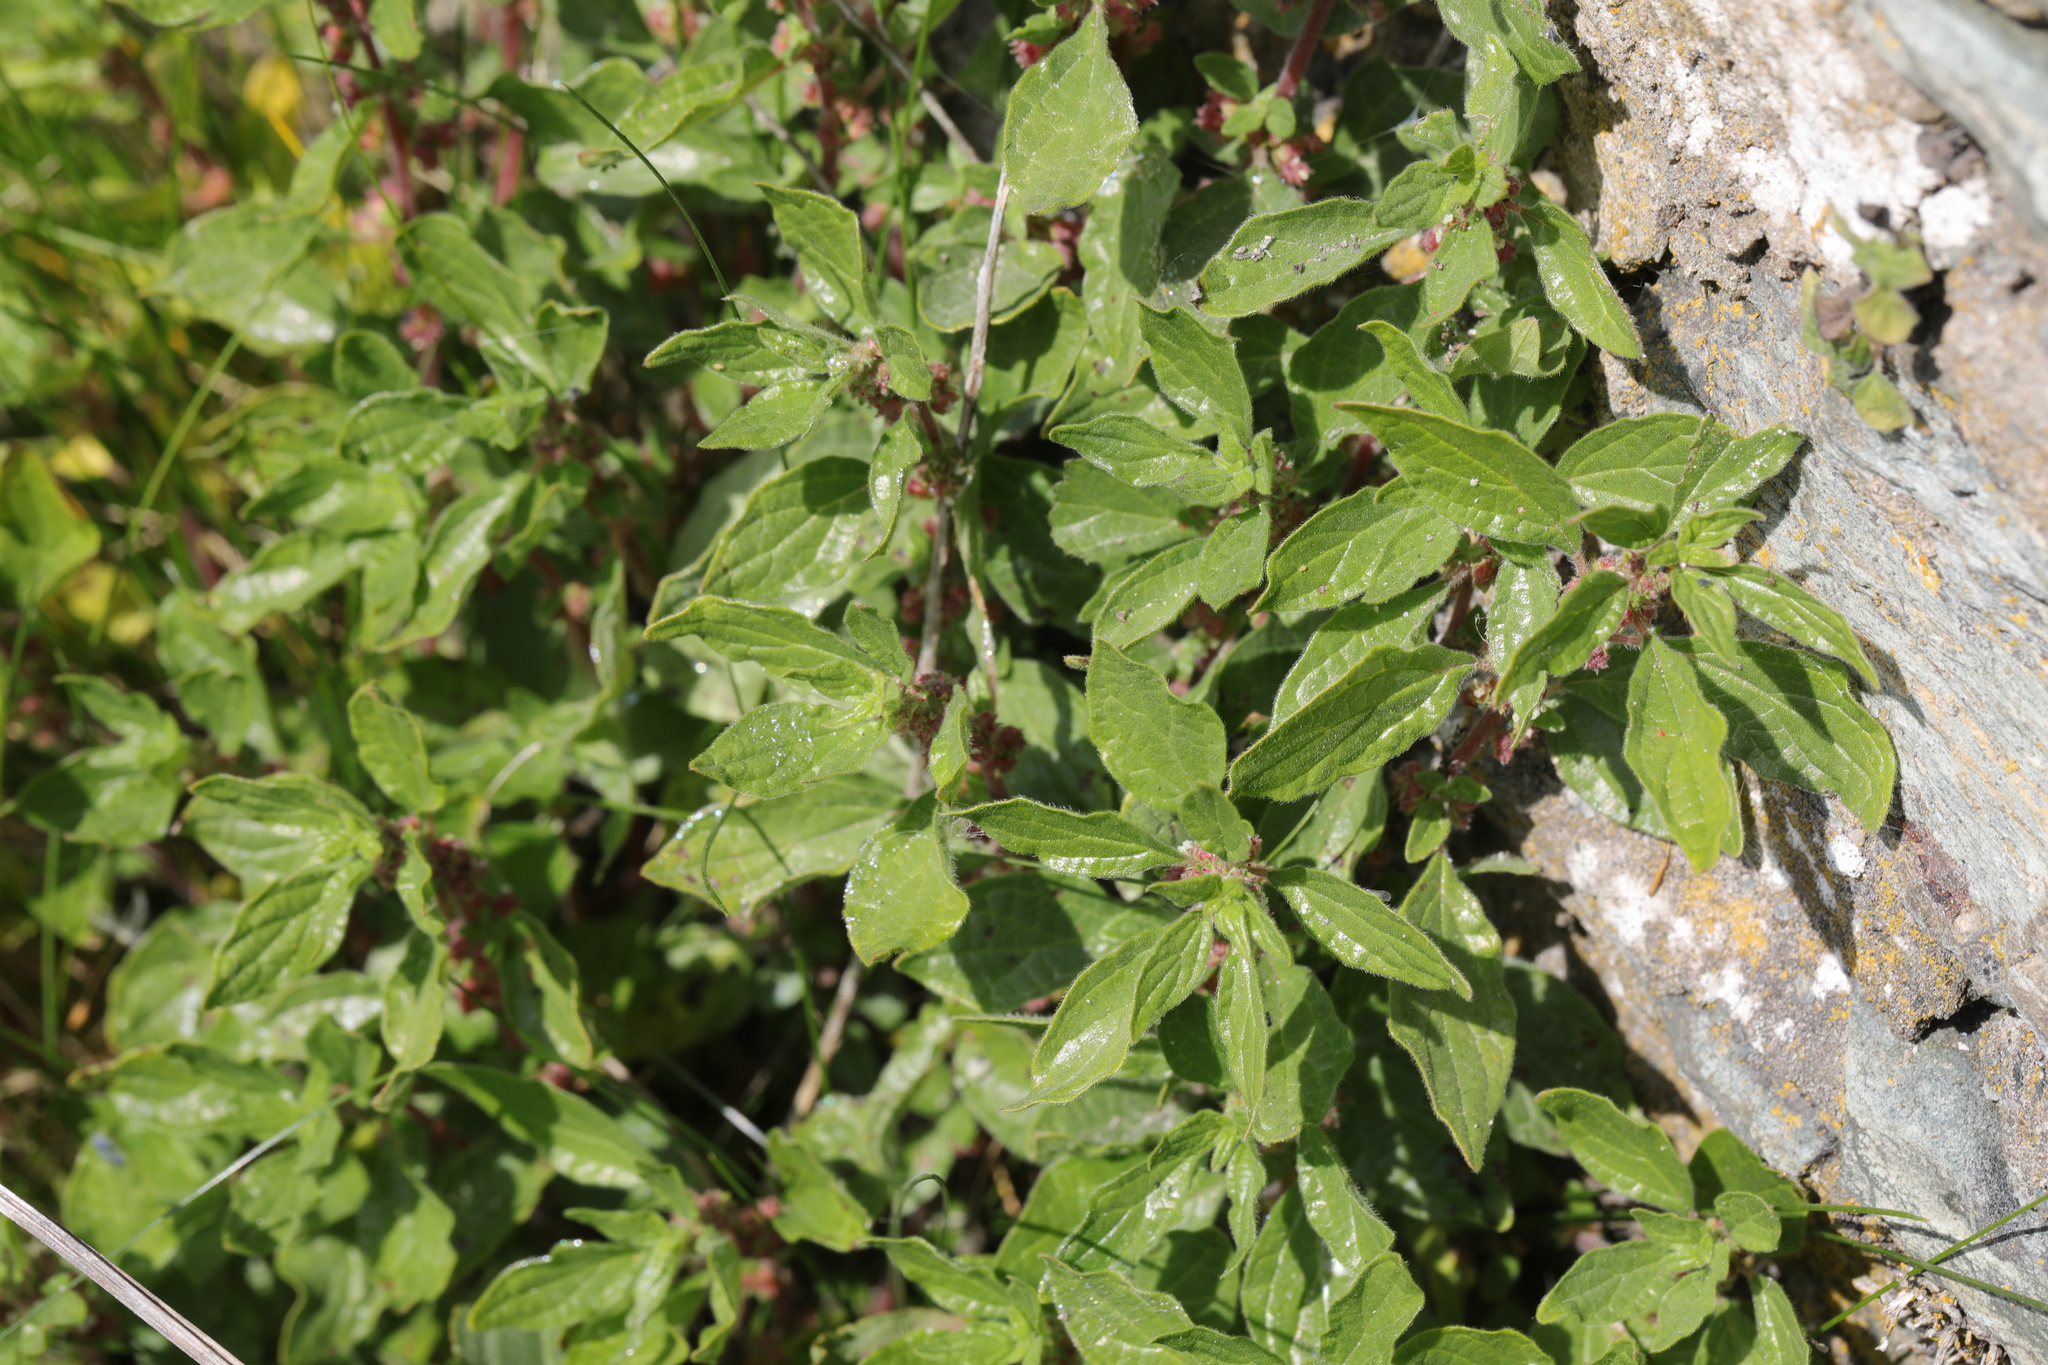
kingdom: Plantae
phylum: Tracheophyta
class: Magnoliopsida
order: Rosales
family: Urticaceae
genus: Parietaria
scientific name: Parietaria judaica
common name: Pellitory-of-the-wall
